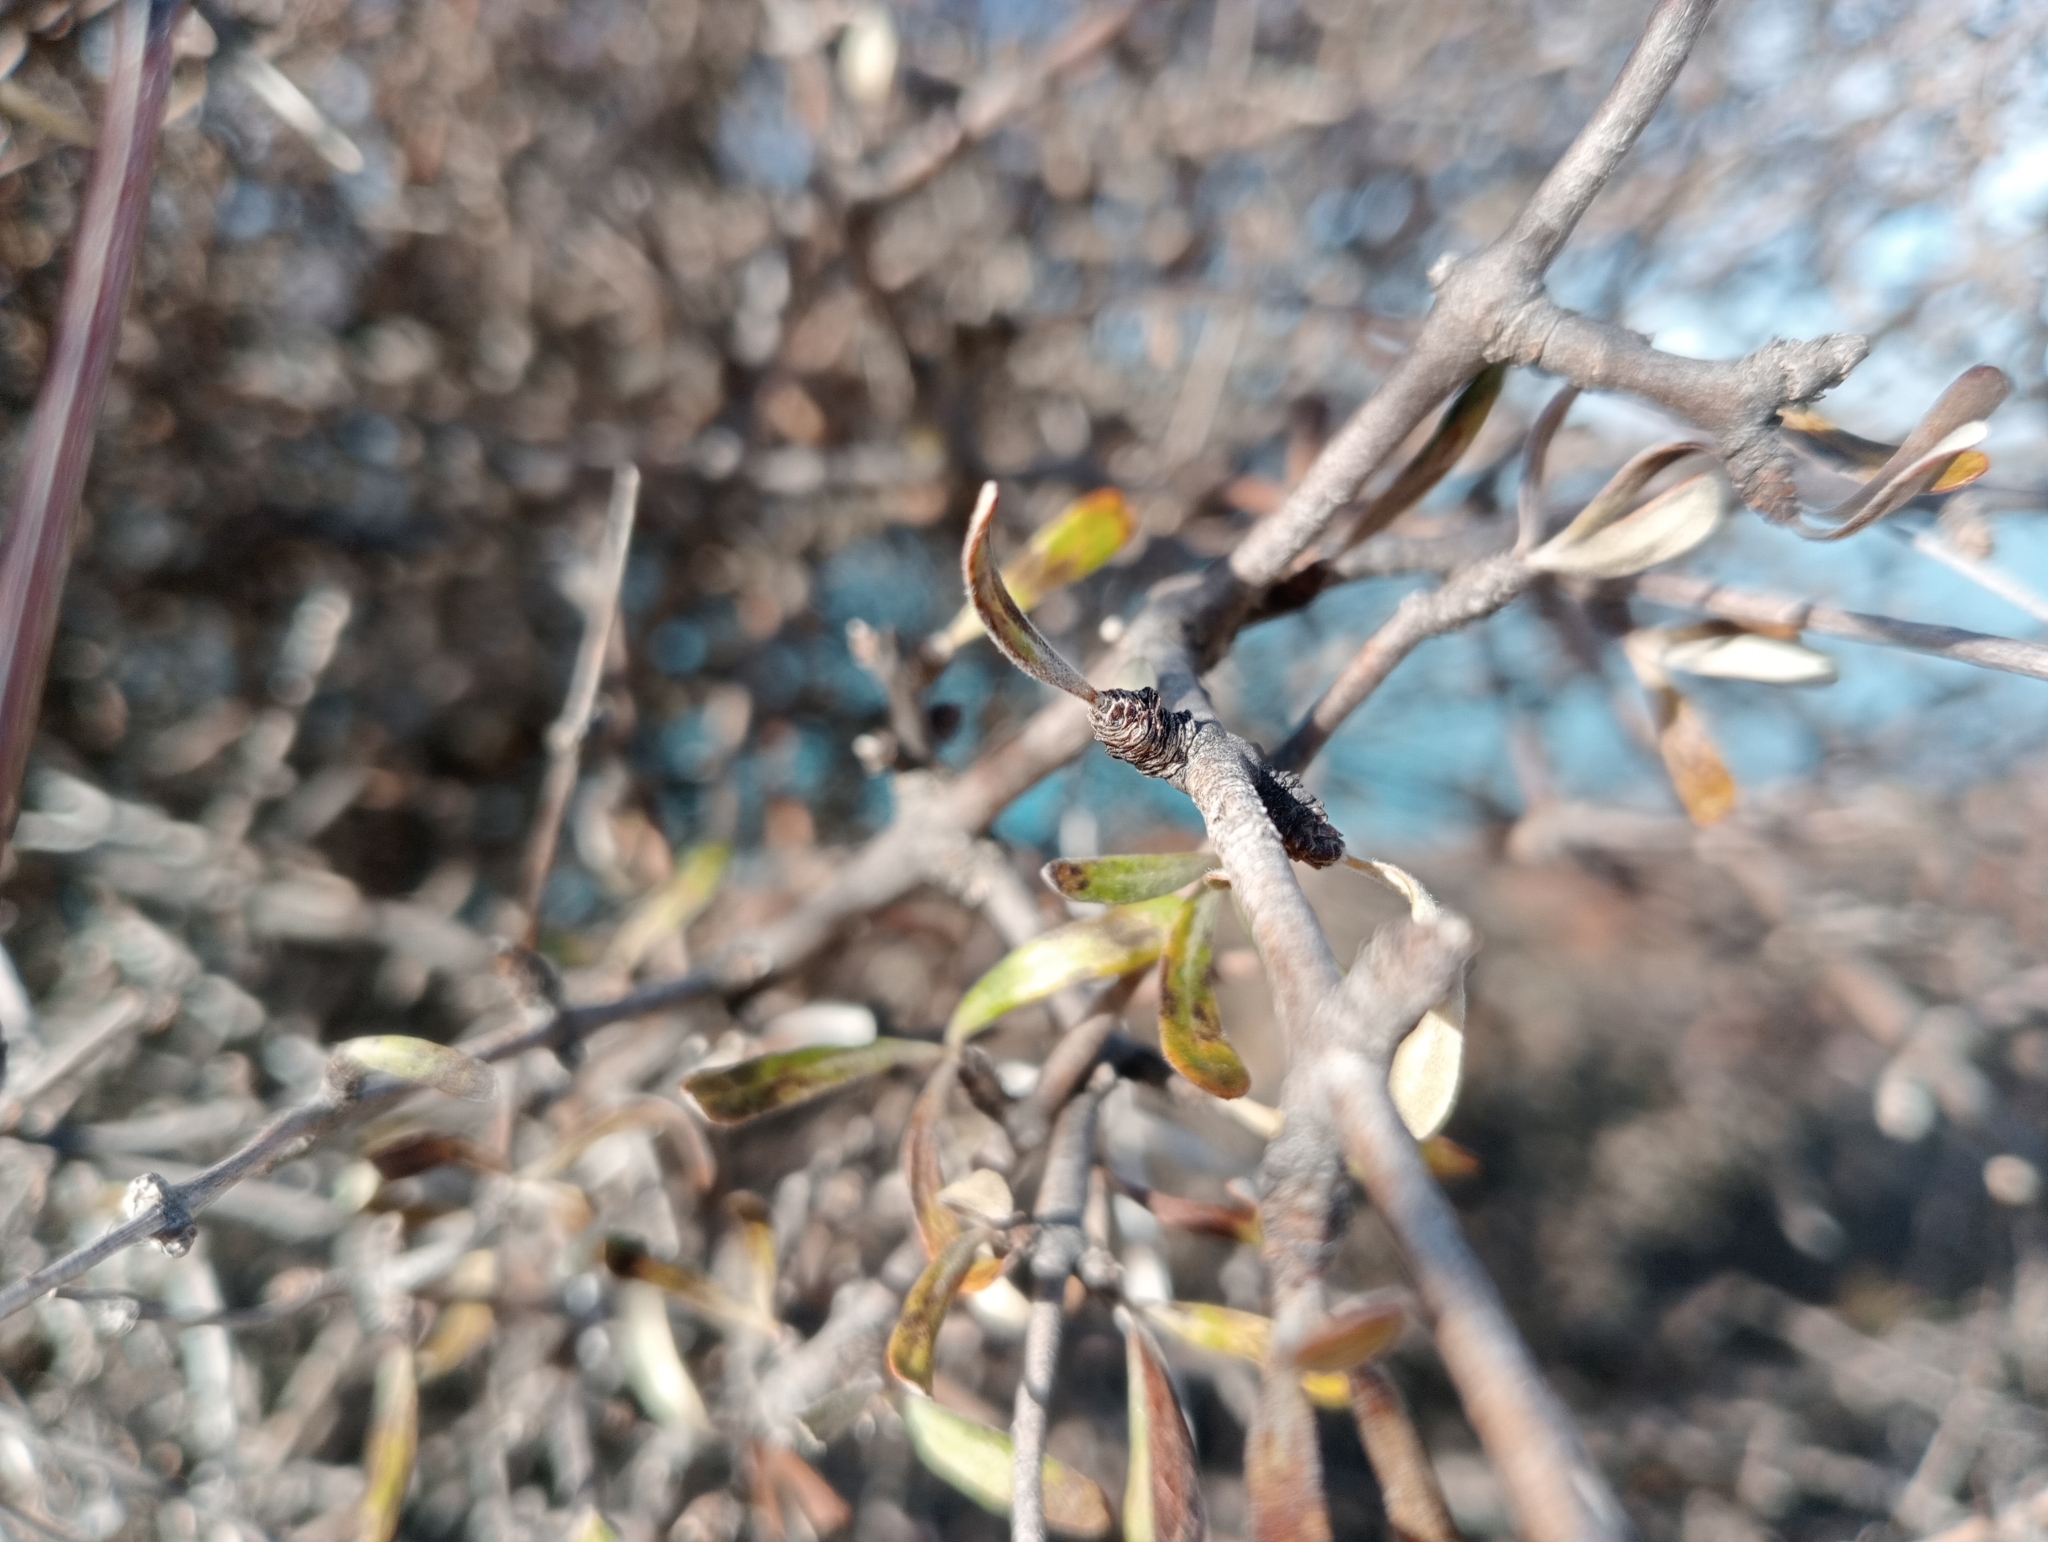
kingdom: Plantae
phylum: Tracheophyta
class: Magnoliopsida
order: Asterales
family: Asteraceae
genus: Olearia
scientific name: Olearia odorata
